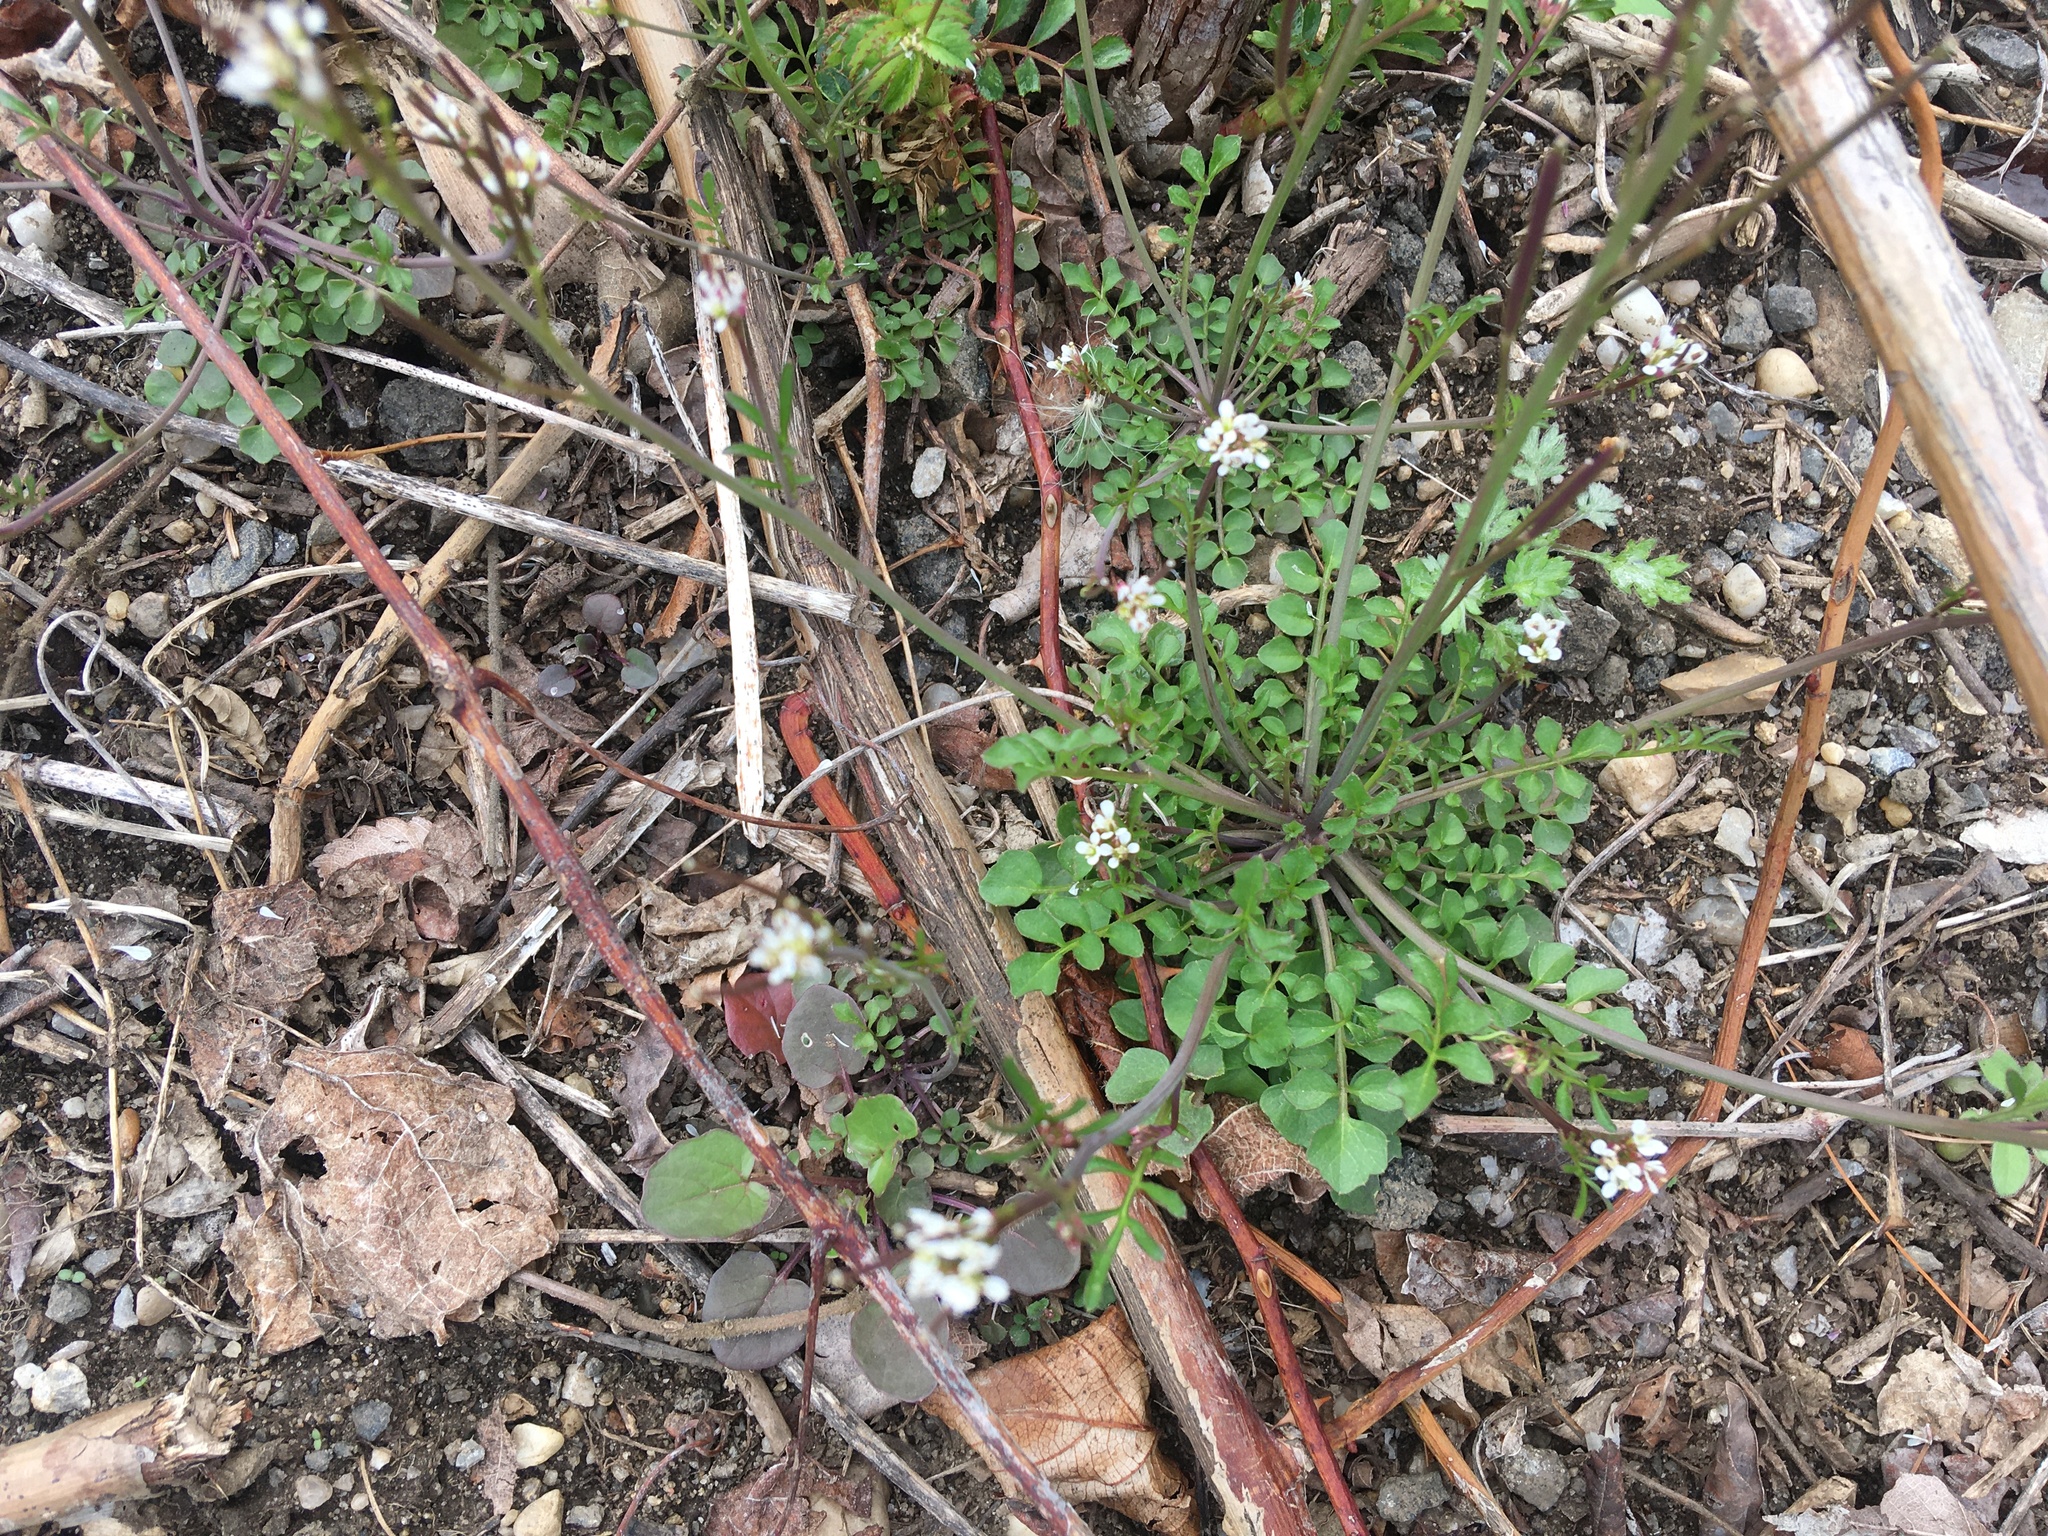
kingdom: Plantae
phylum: Tracheophyta
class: Magnoliopsida
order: Brassicales
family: Brassicaceae
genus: Cardamine
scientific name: Cardamine hirsuta
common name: Hairy bittercress
